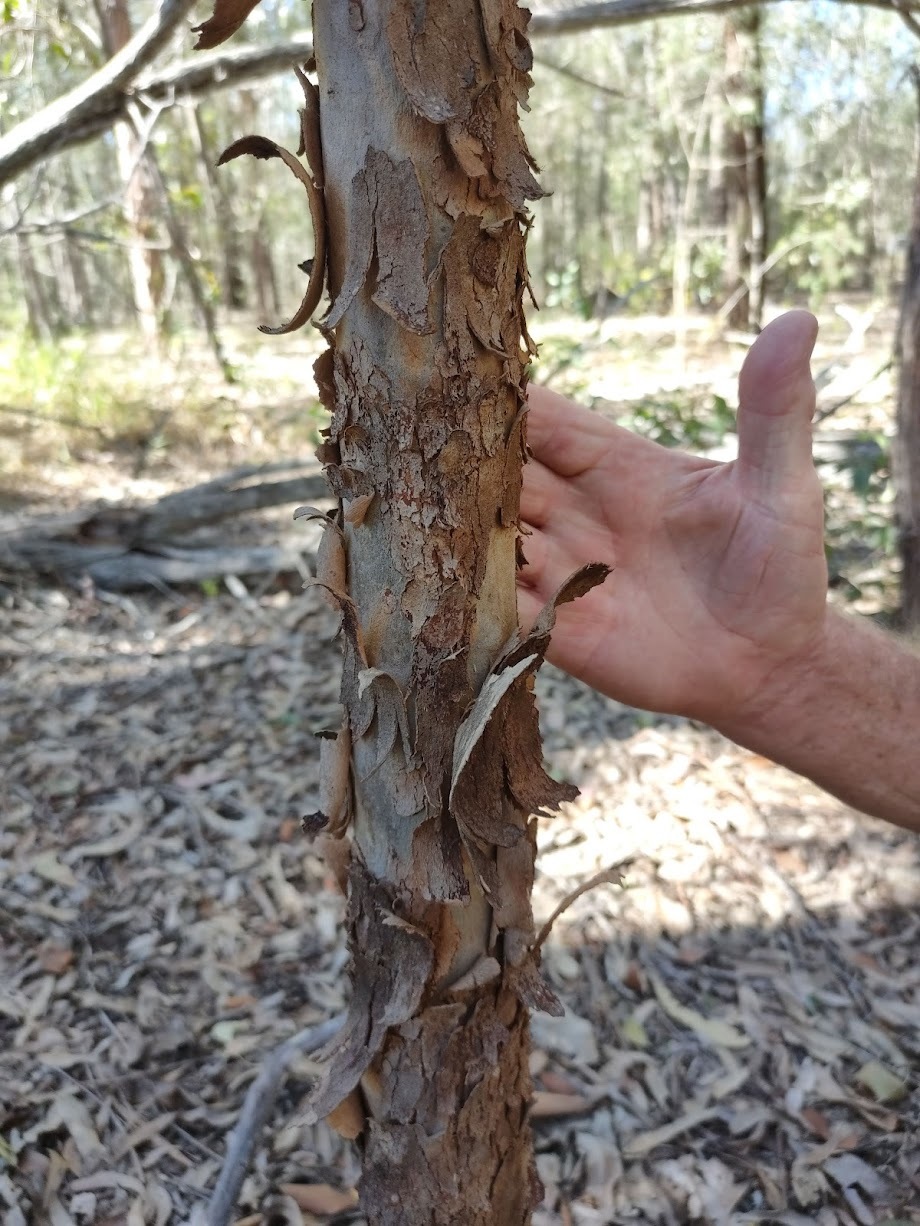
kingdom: Plantae
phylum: Tracheophyta
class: Magnoliopsida
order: Myrtales
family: Myrtaceae
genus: Angophora
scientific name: Angophora woodsiana
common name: Smudgy apple
